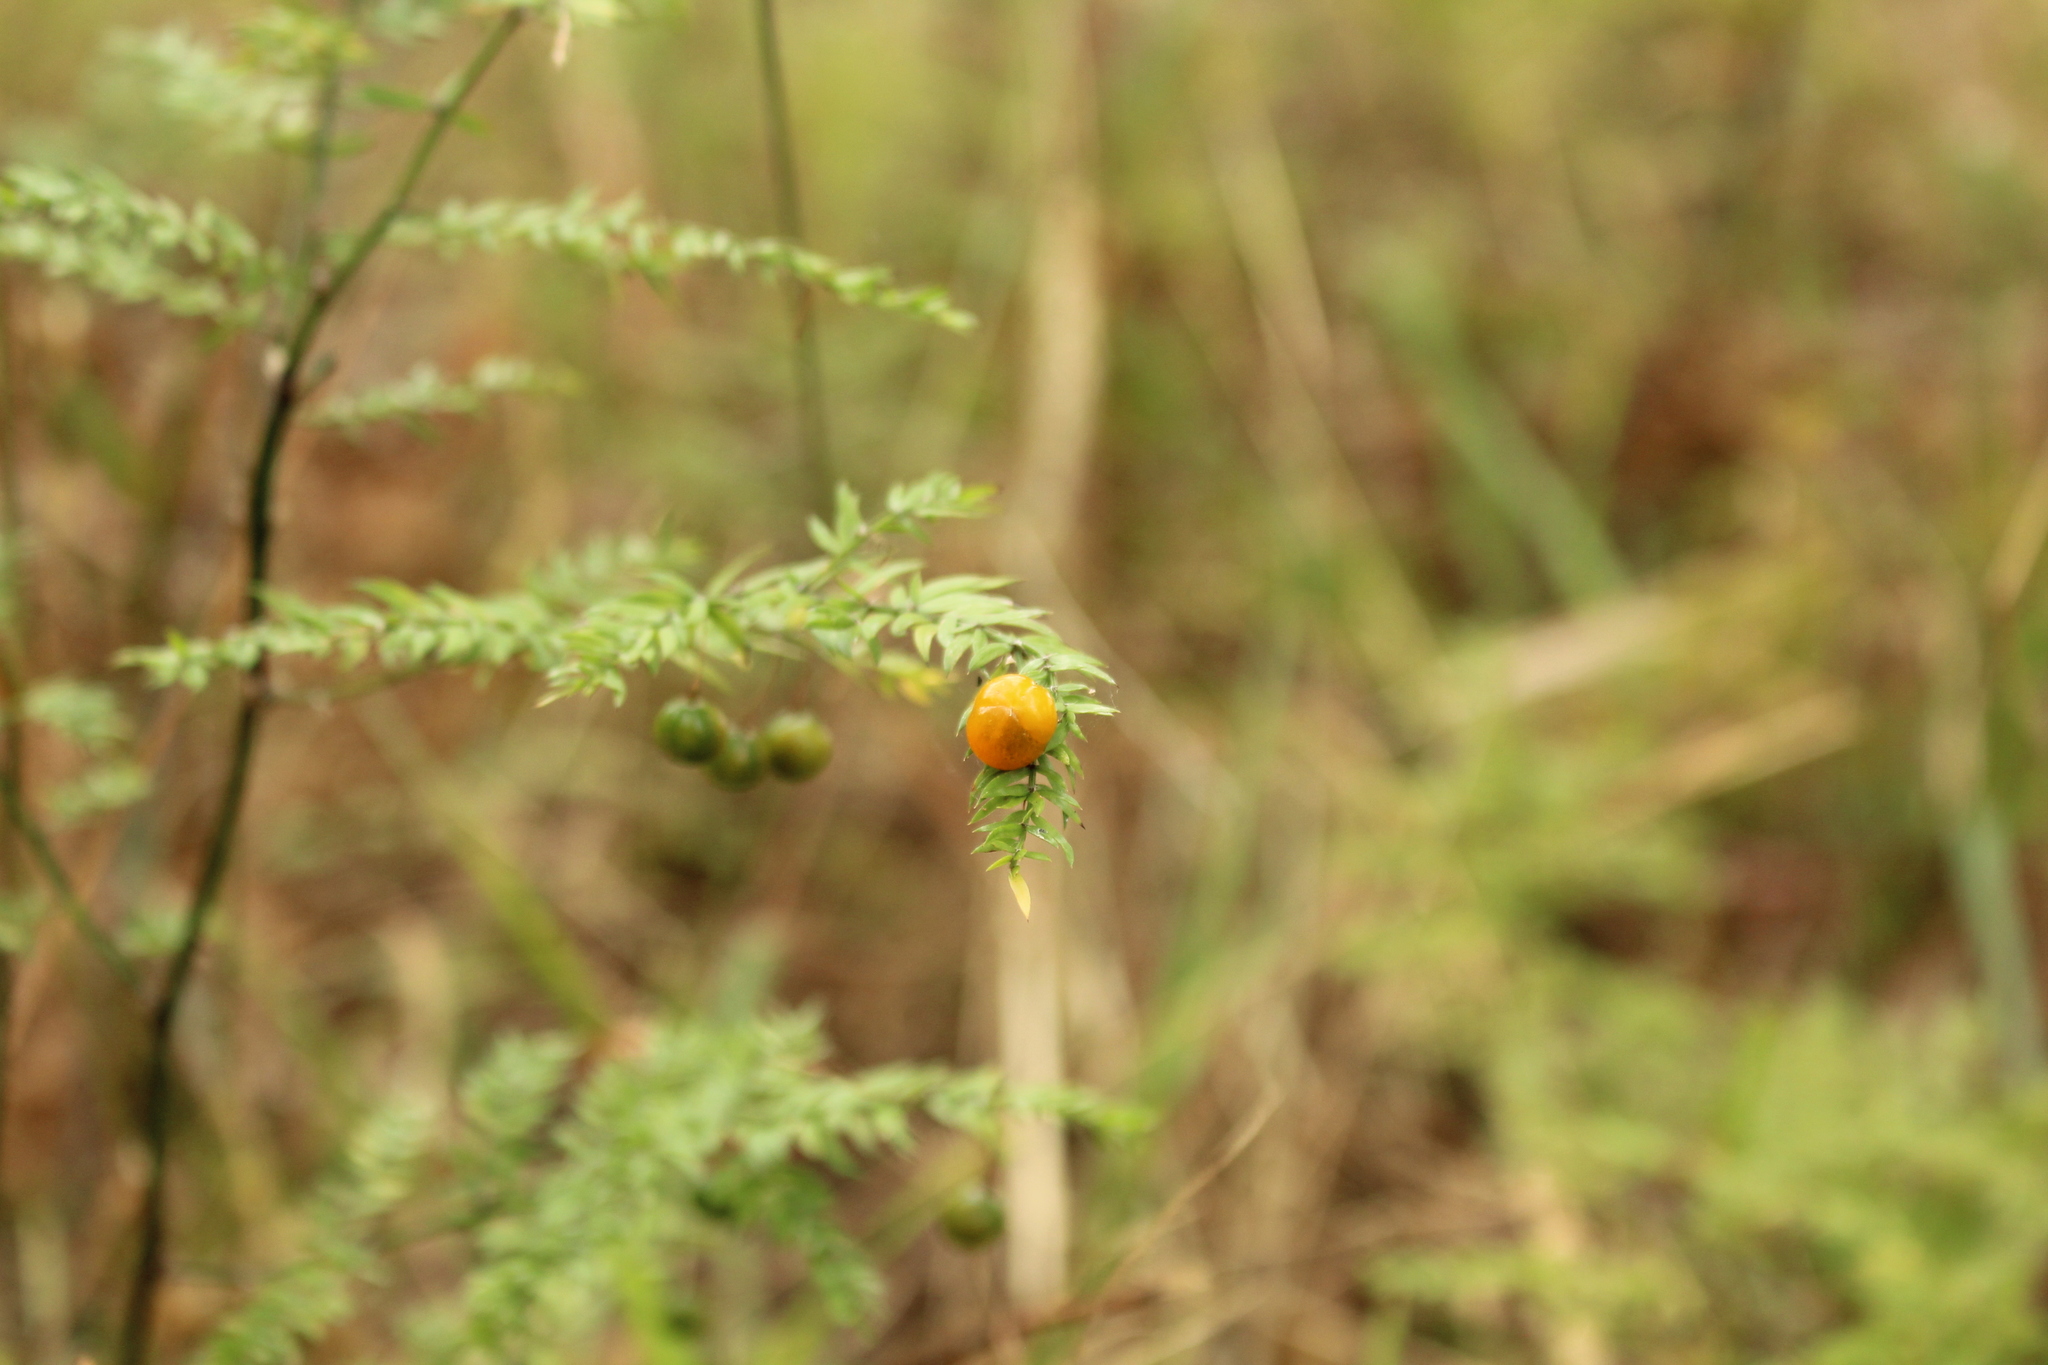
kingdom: Plantae
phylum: Tracheophyta
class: Liliopsida
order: Asparagales
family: Asparagaceae
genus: Asparagus
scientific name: Asparagus scandens
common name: Asparagus-fern
